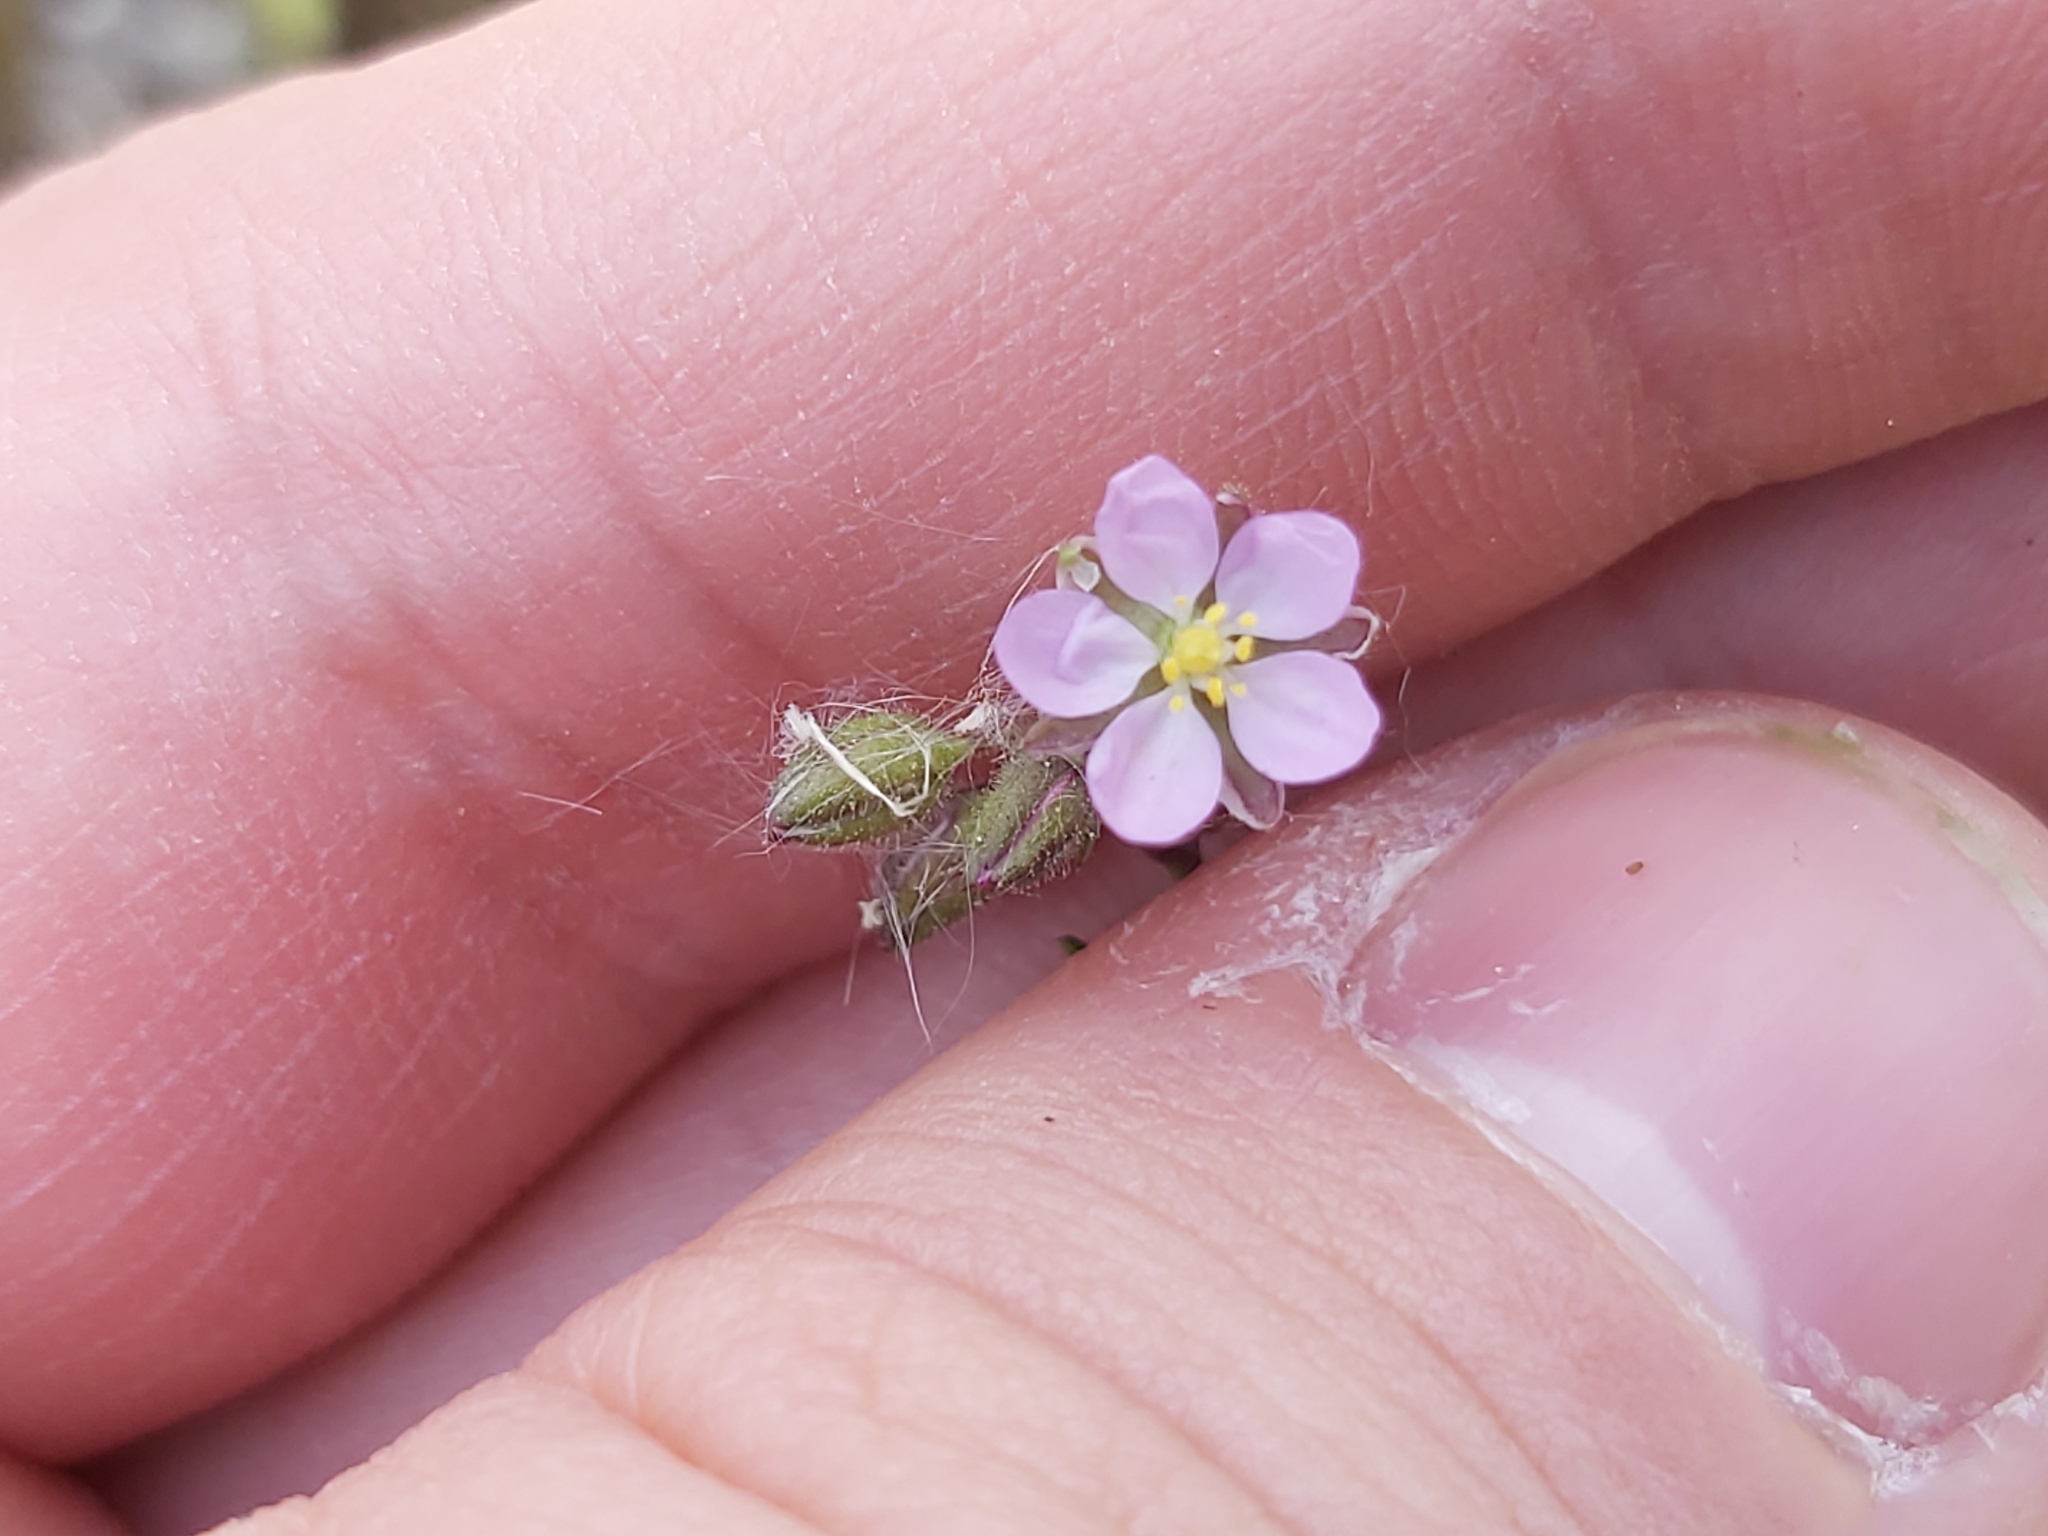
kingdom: Plantae
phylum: Tracheophyta
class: Magnoliopsida
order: Caryophyllales
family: Caryophyllaceae
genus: Spergularia
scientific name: Spergularia rubra
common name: Red sand-spurrey
